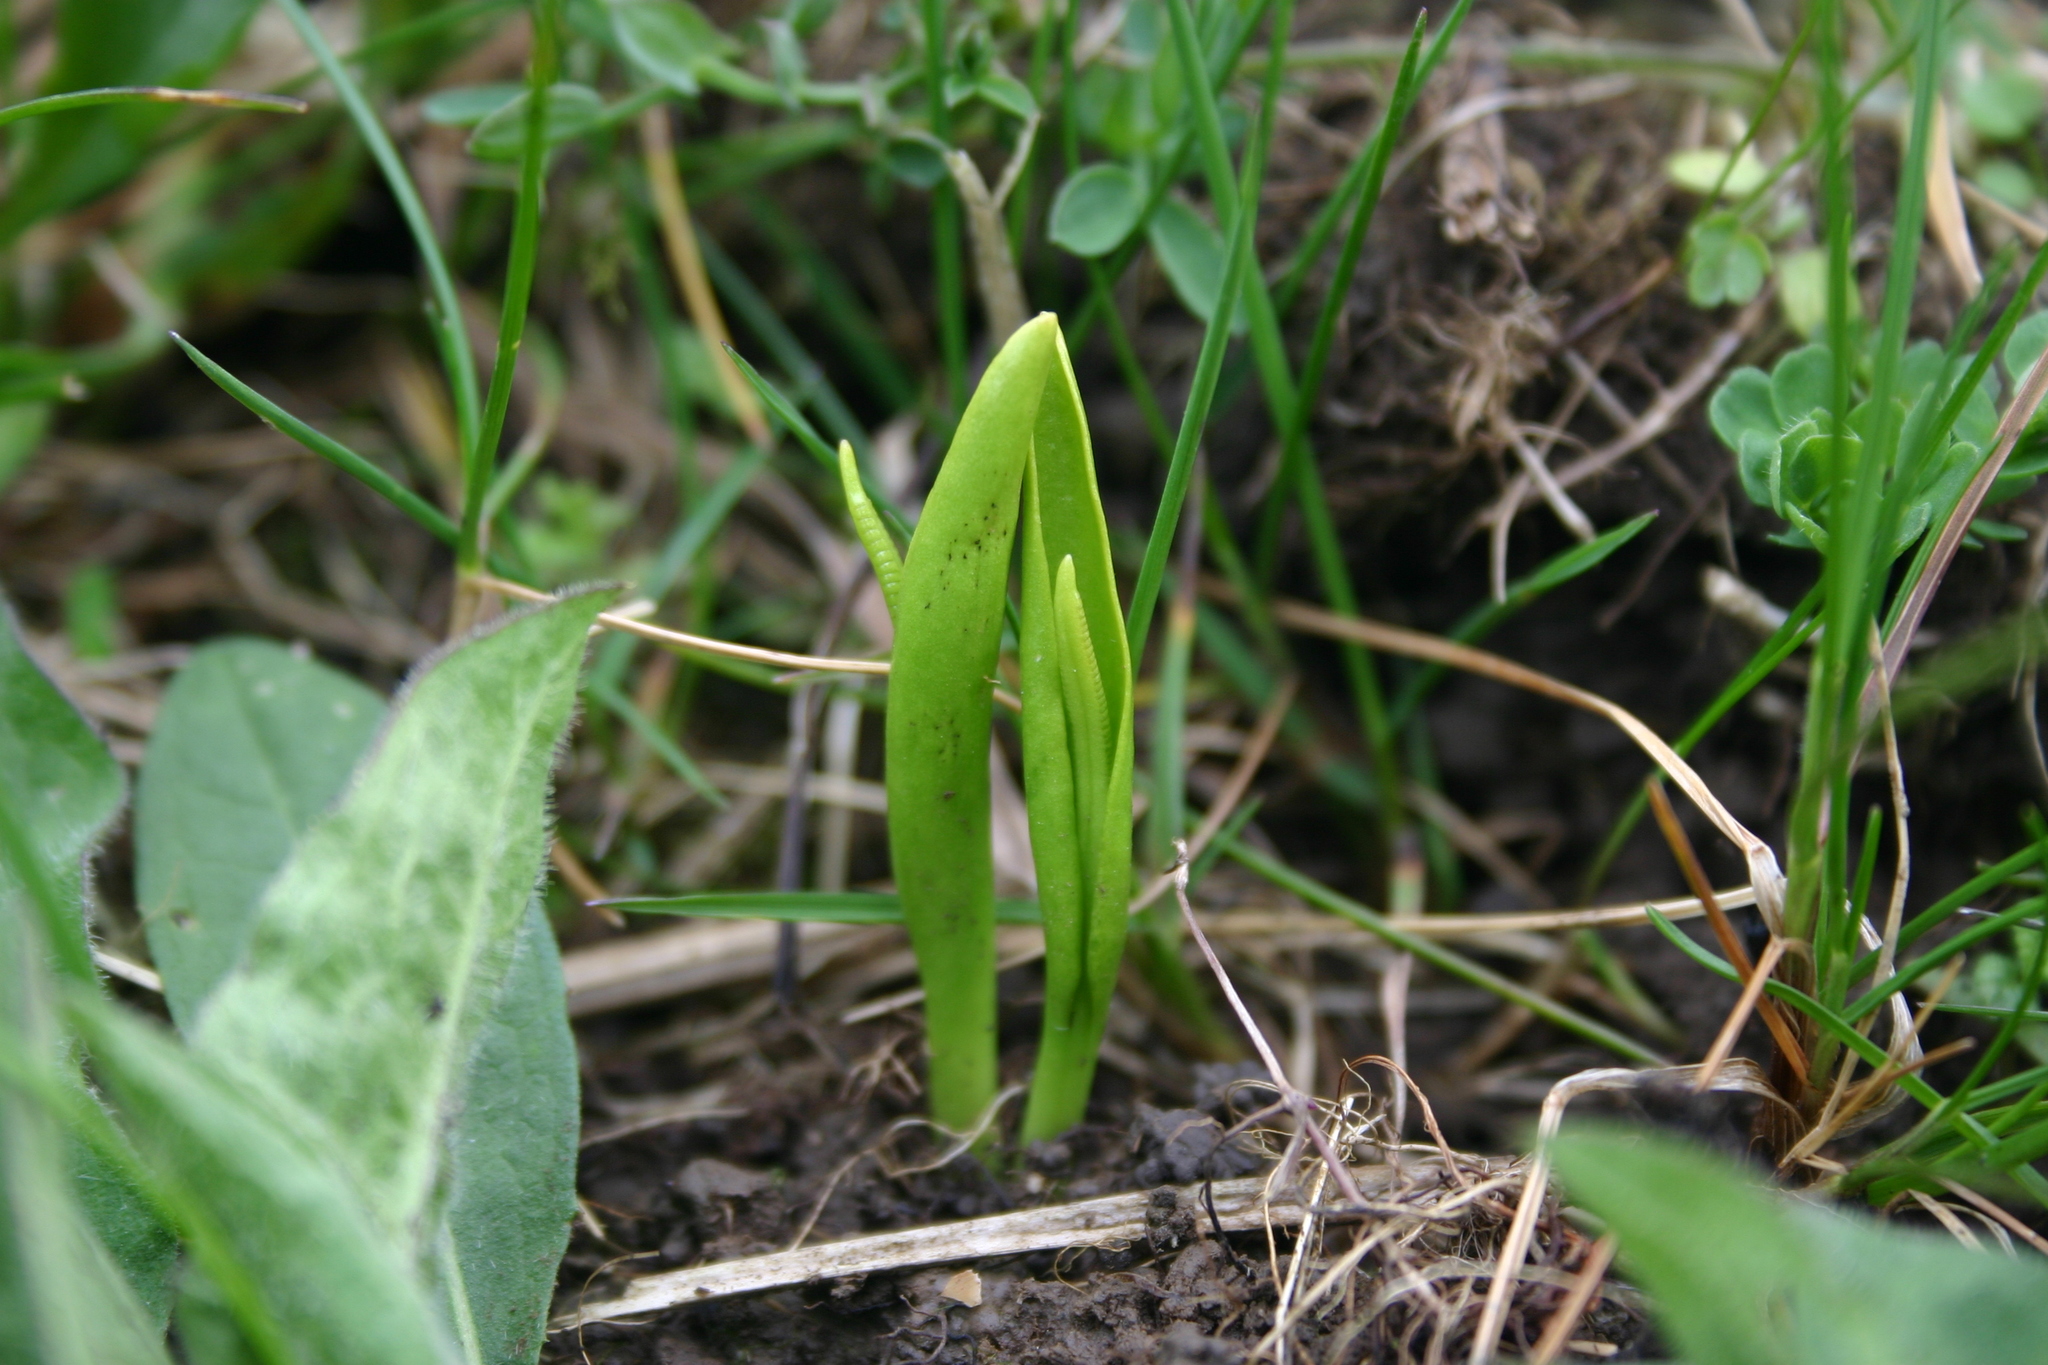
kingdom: Plantae
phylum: Tracheophyta
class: Polypodiopsida
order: Ophioglossales
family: Ophioglossaceae
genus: Ophioglossum
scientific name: Ophioglossum vulgatum
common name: Adder's-tongue
